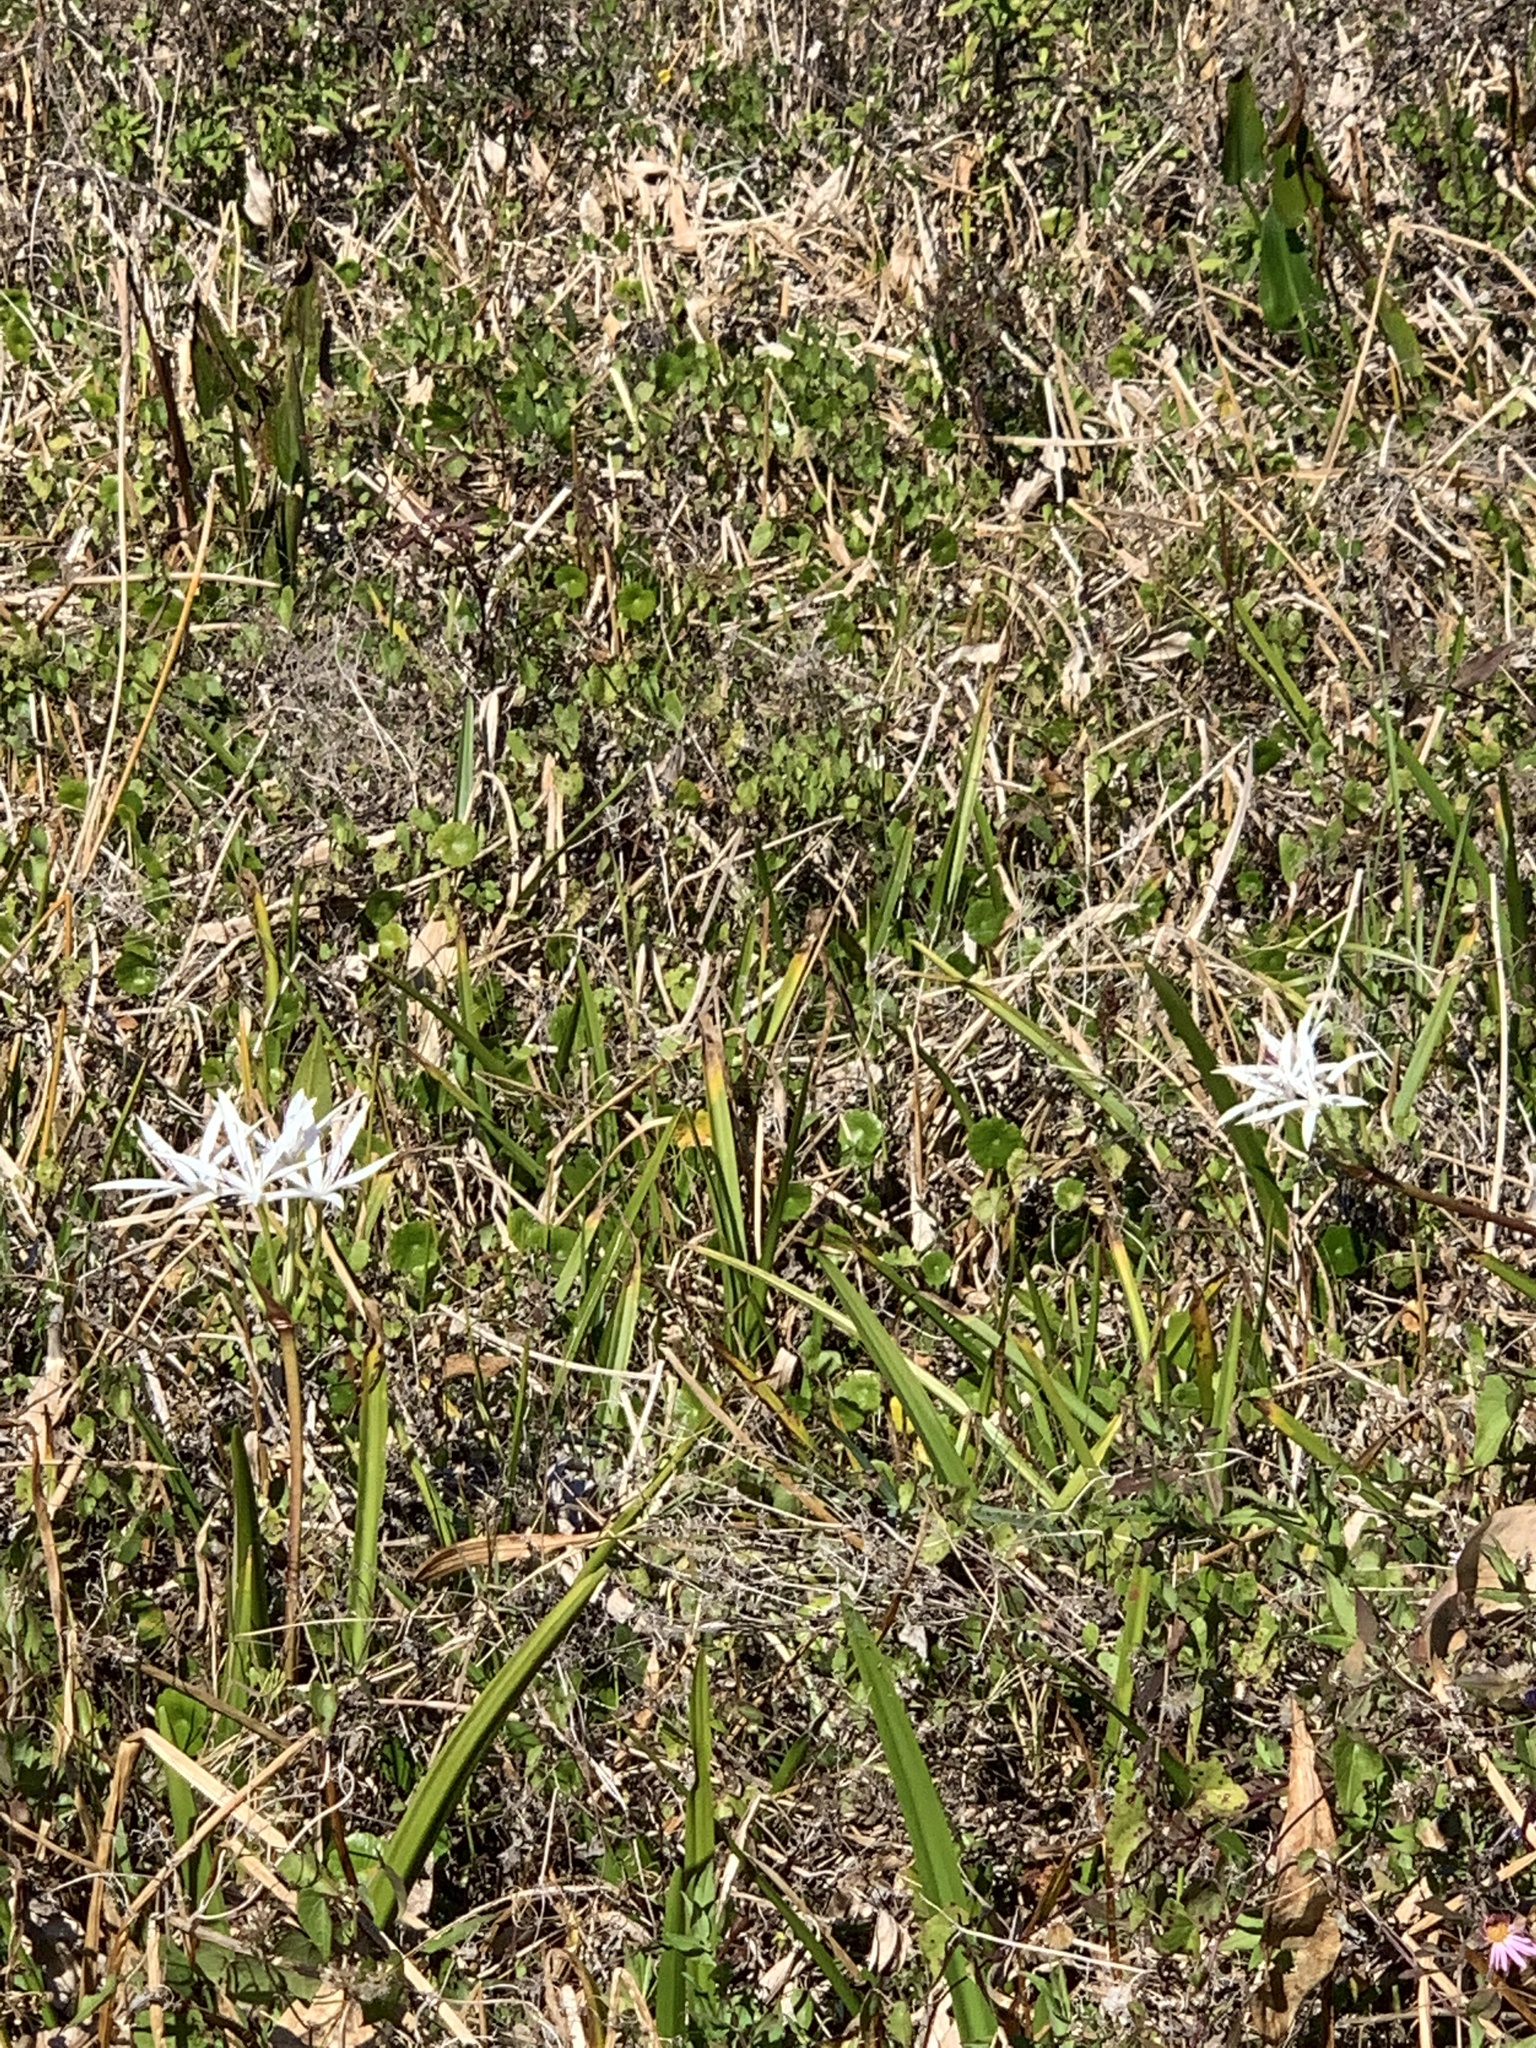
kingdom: Plantae
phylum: Tracheophyta
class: Liliopsida
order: Asparagales
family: Amaryllidaceae
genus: Crinum
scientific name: Crinum americanum
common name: Florida swamp-lily
